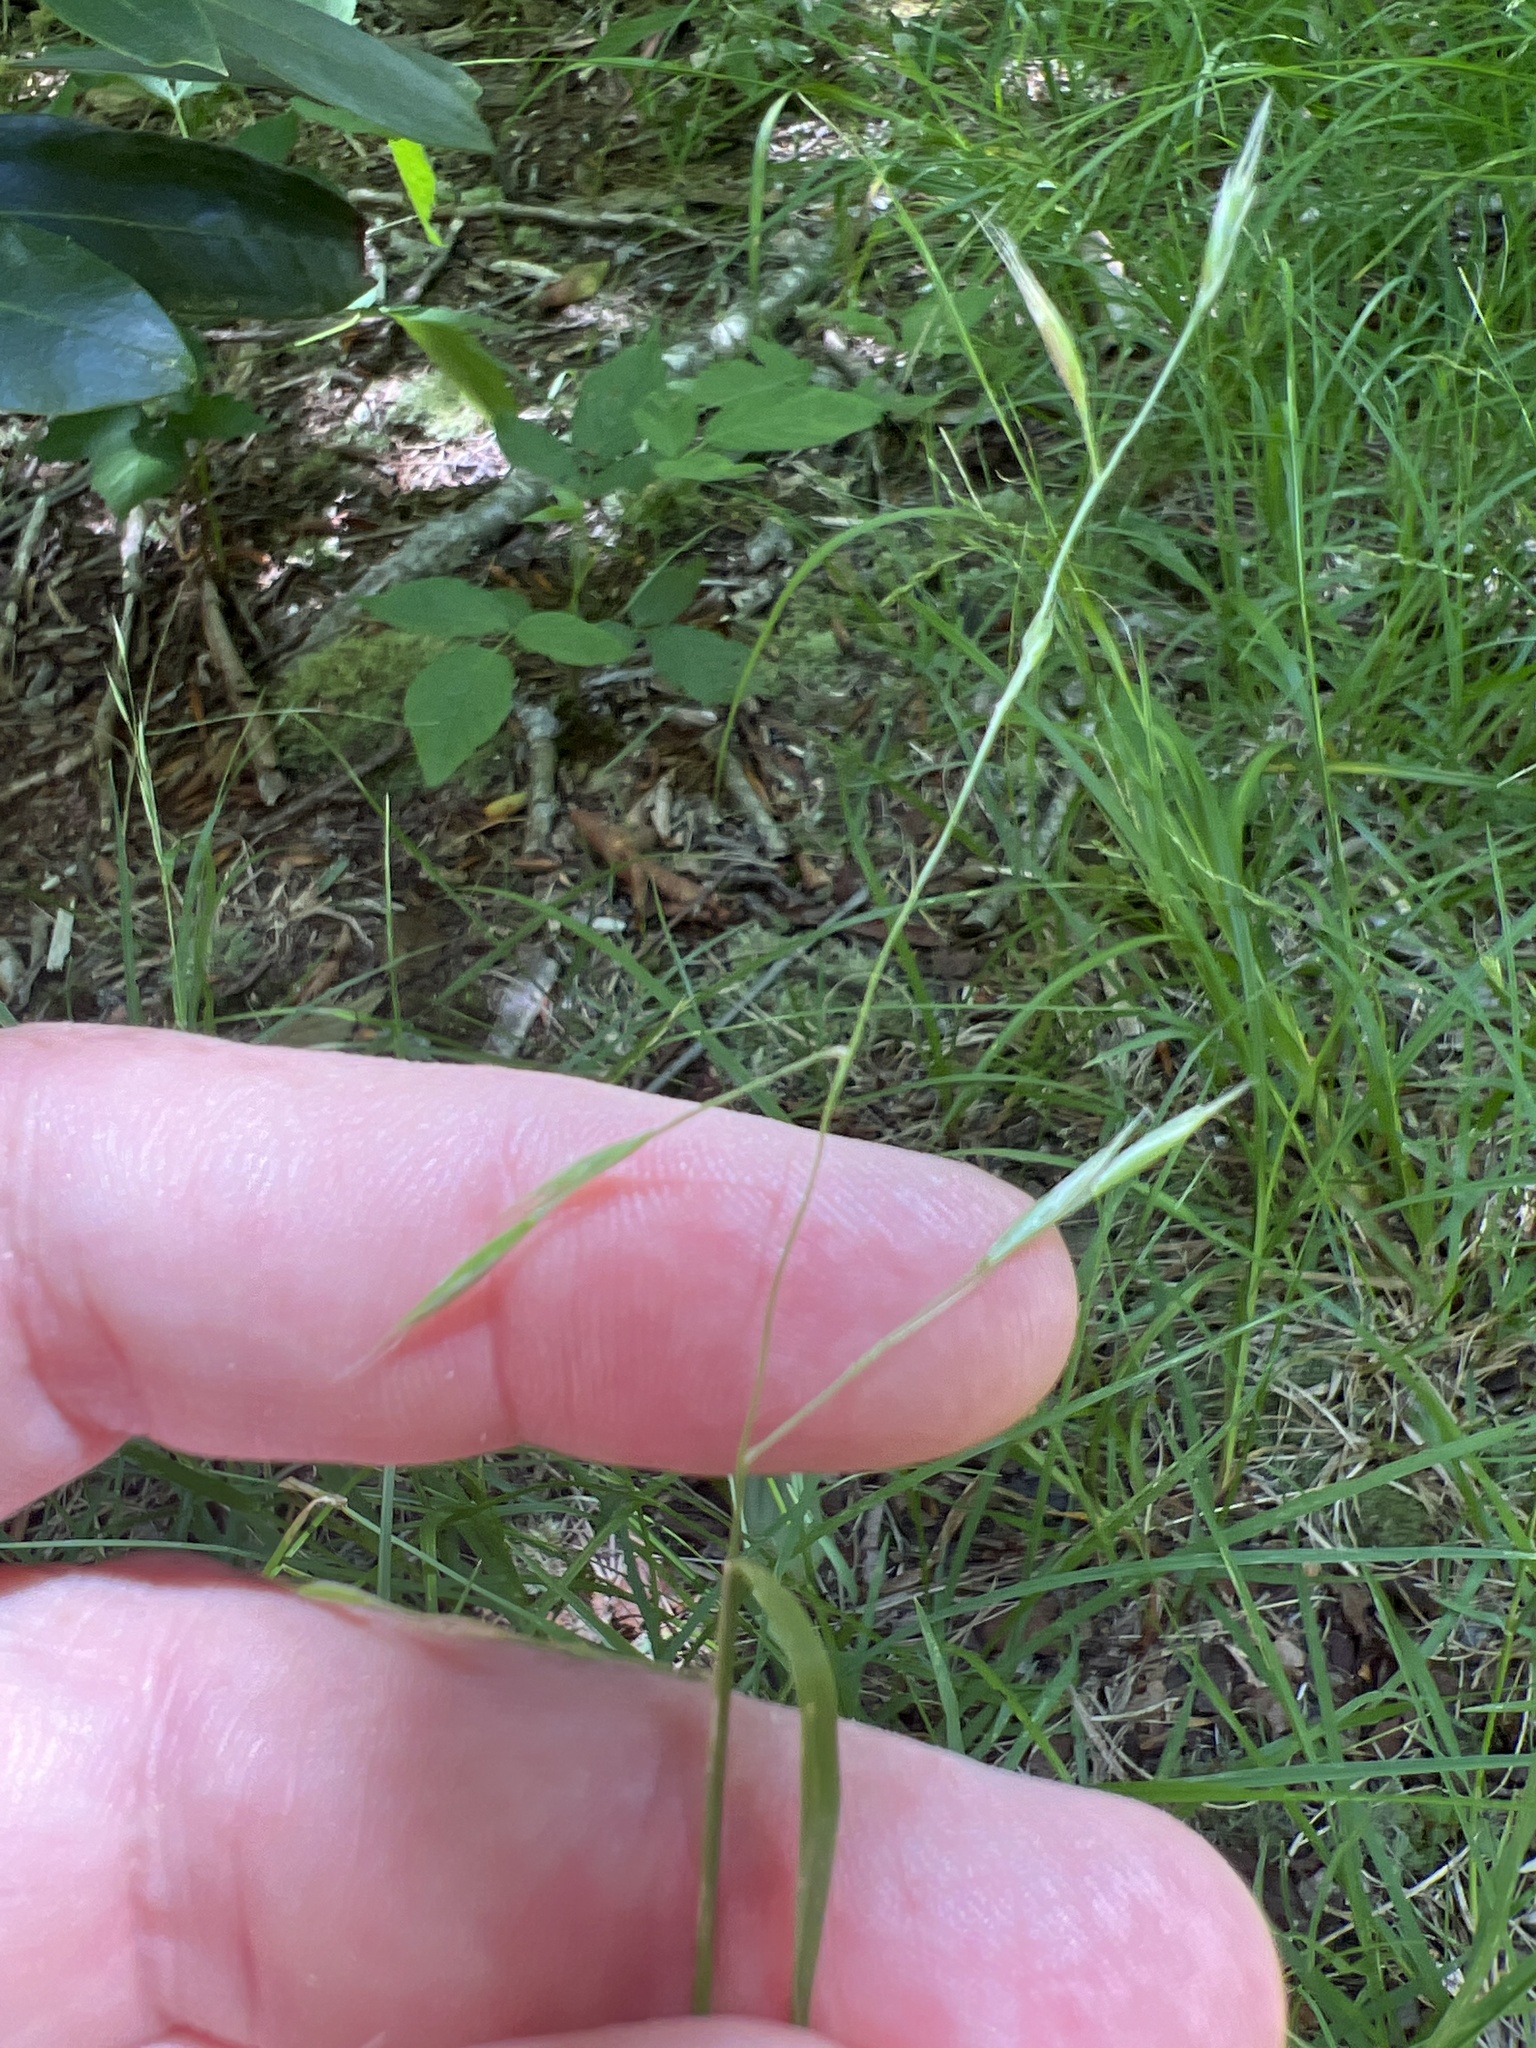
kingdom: Plantae
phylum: Tracheophyta
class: Liliopsida
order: Poales
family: Poaceae
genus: Danthonia
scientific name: Danthonia compressa
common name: Flat-stem oat grass
